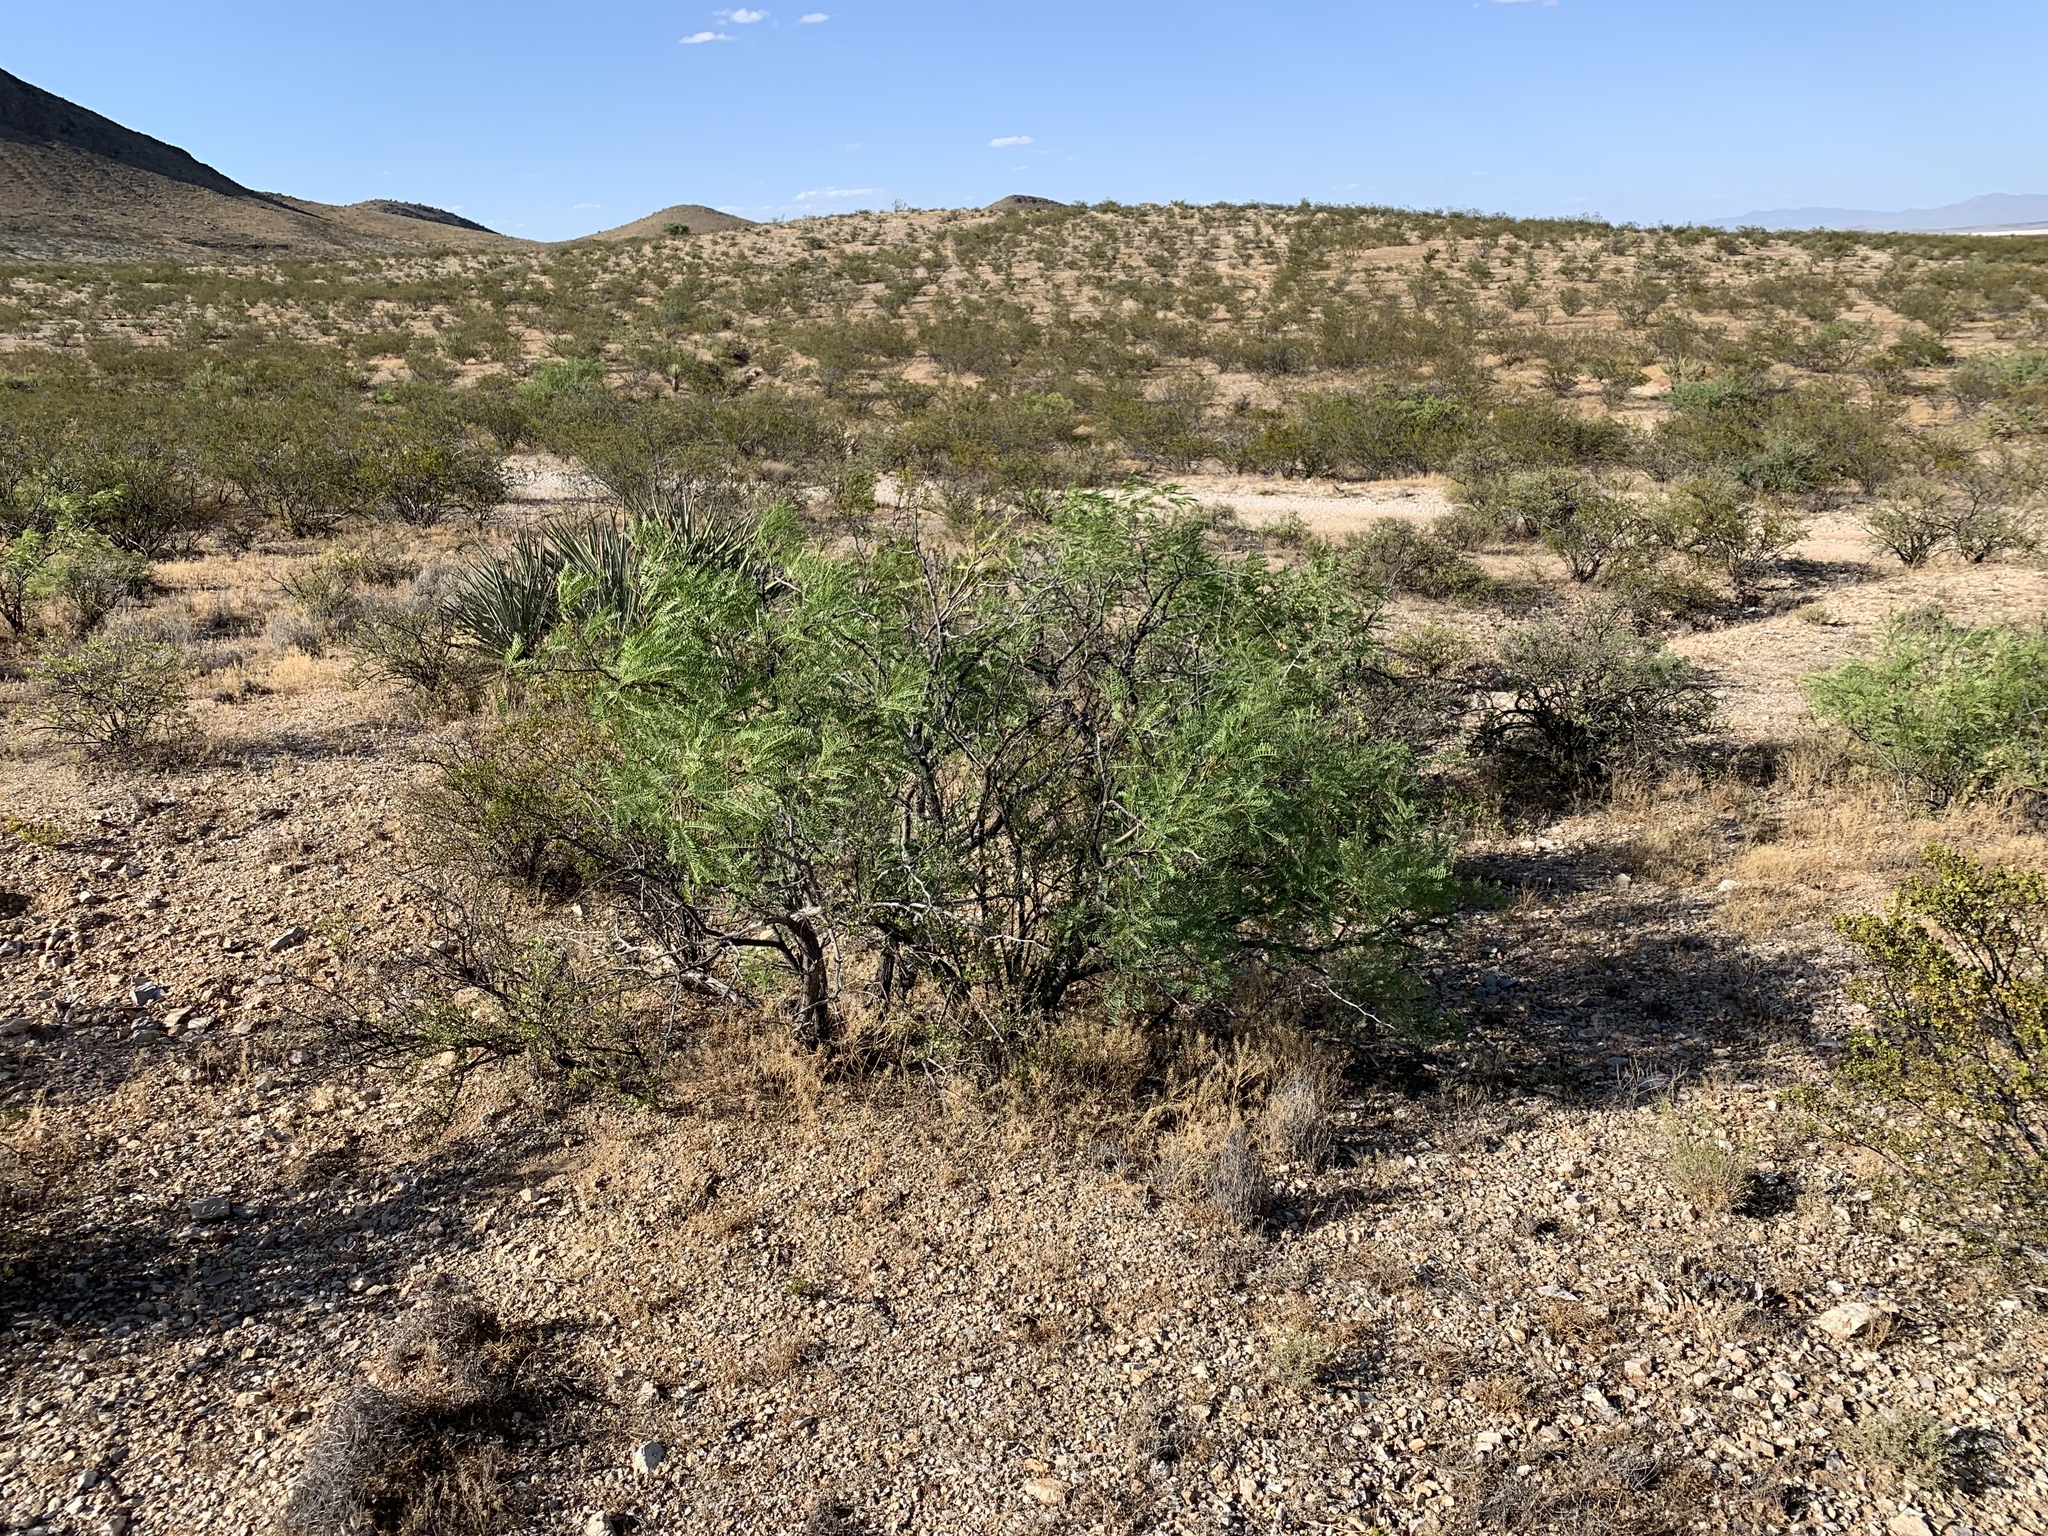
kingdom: Plantae
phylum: Tracheophyta
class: Magnoliopsida
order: Fabales
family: Fabaceae
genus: Prosopis
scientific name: Prosopis velutina
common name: Velvet mesquite
